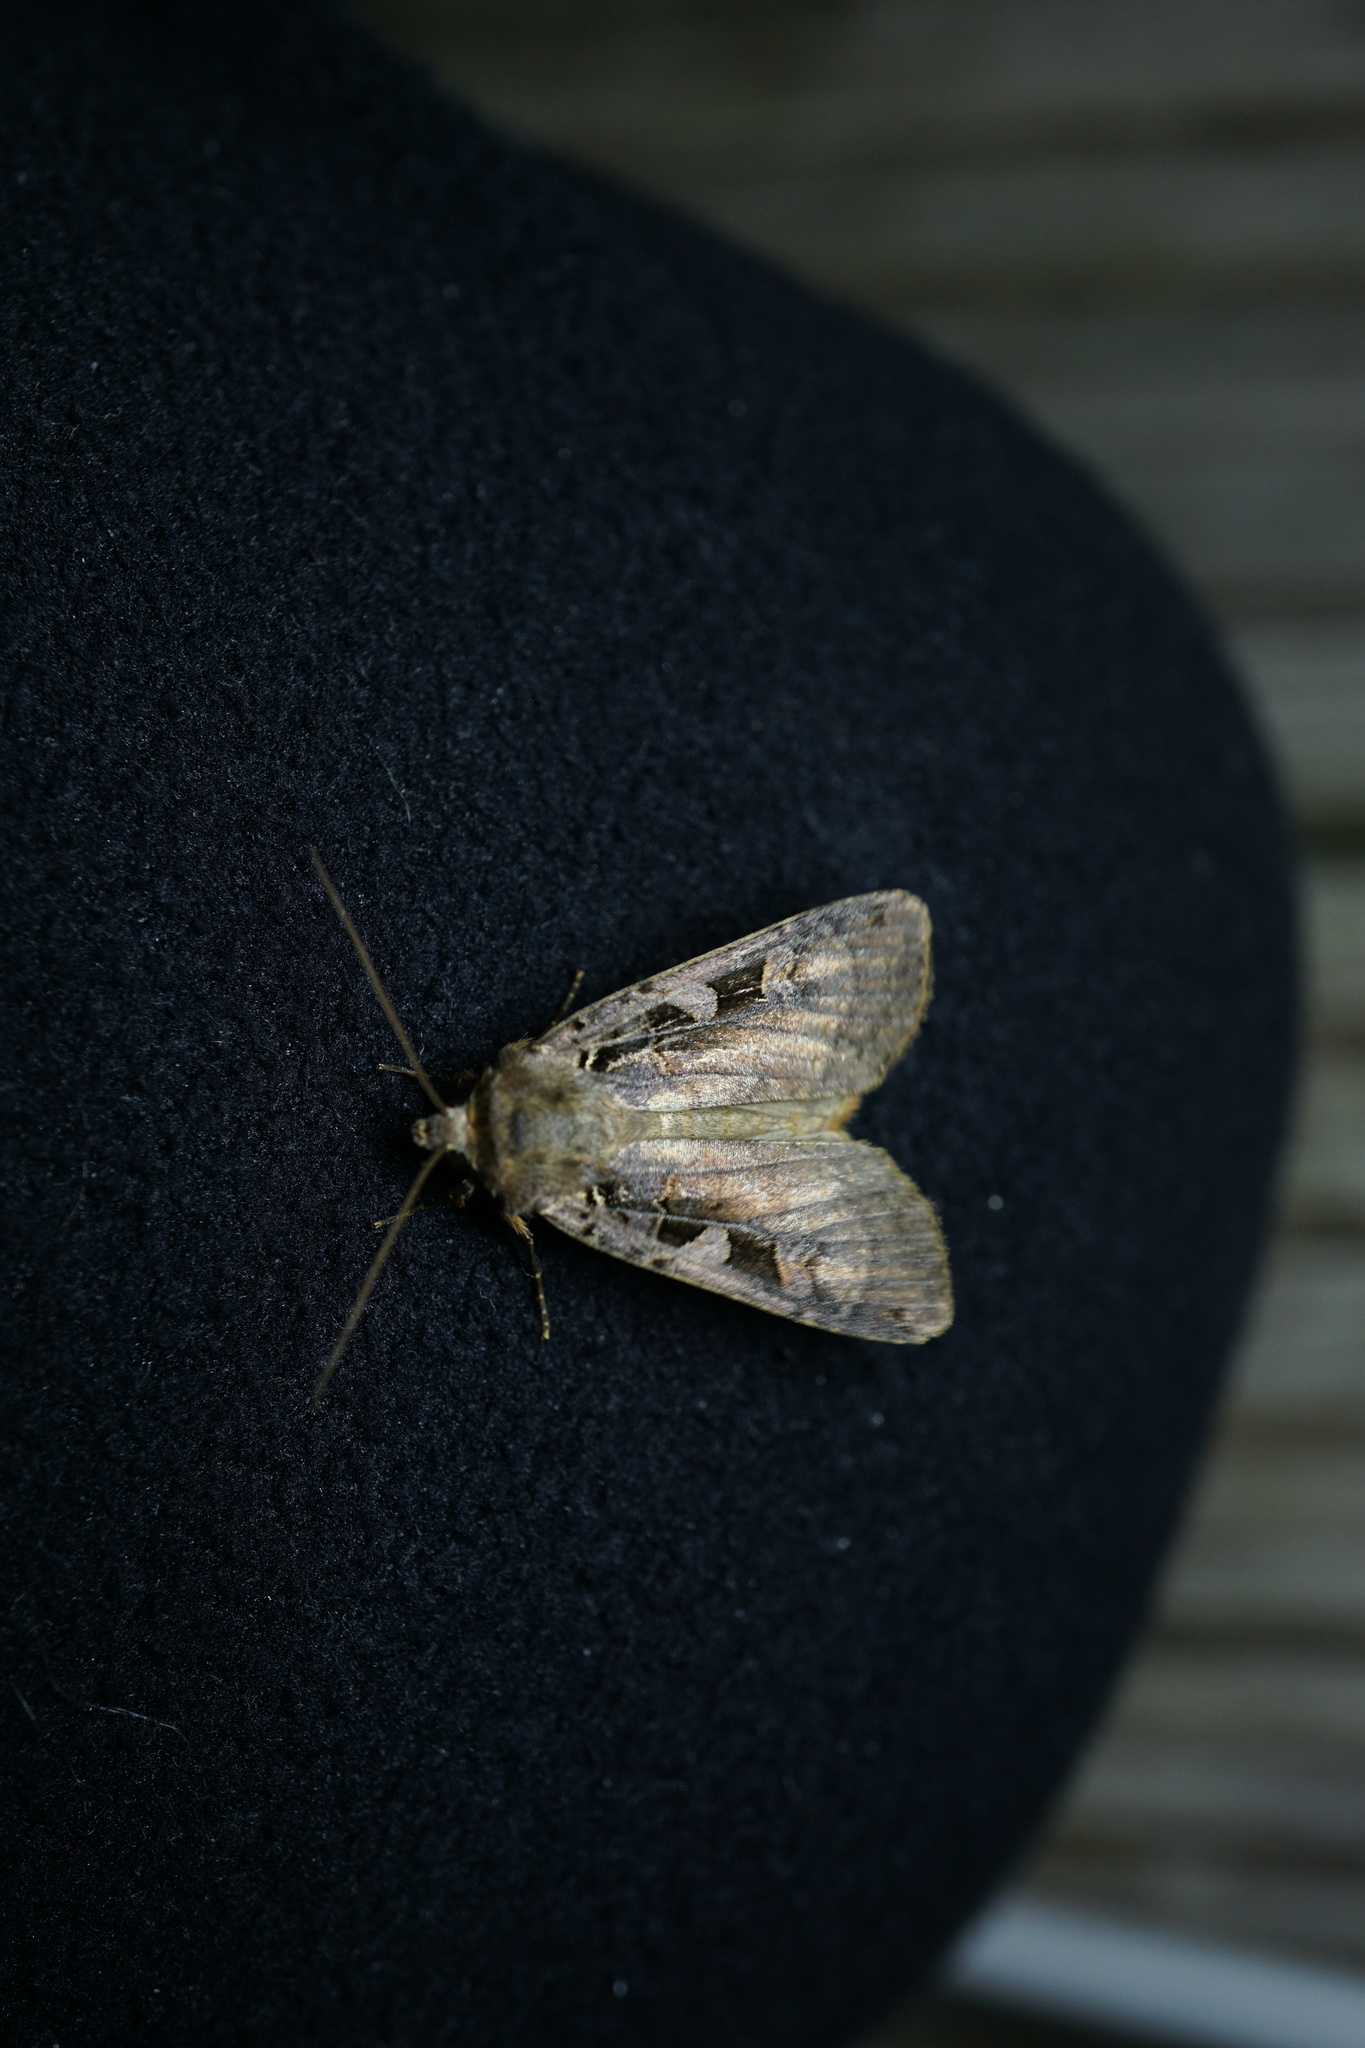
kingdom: Animalia
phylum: Arthropoda
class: Insecta
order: Lepidoptera
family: Noctuidae
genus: Xestia
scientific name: Xestia ditrapezium
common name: Triple-spotted clay
